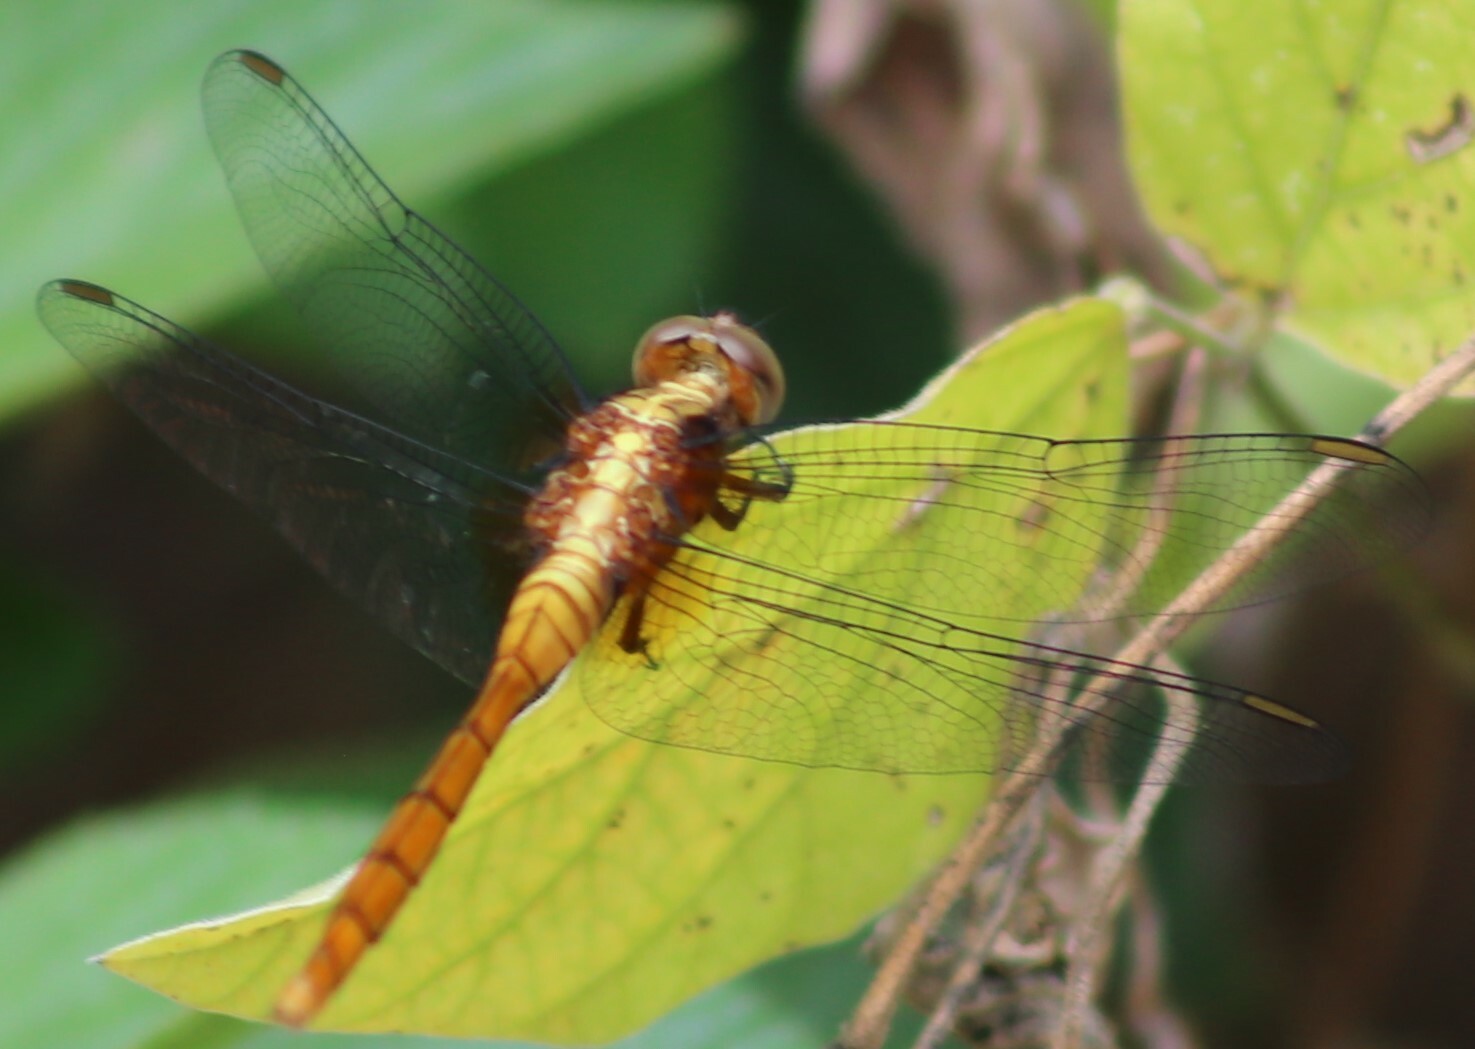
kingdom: Animalia
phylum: Arthropoda
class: Insecta
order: Odonata
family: Libellulidae
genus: Orthetrum
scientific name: Orthetrum villosovittatum
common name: Firery skimmer
